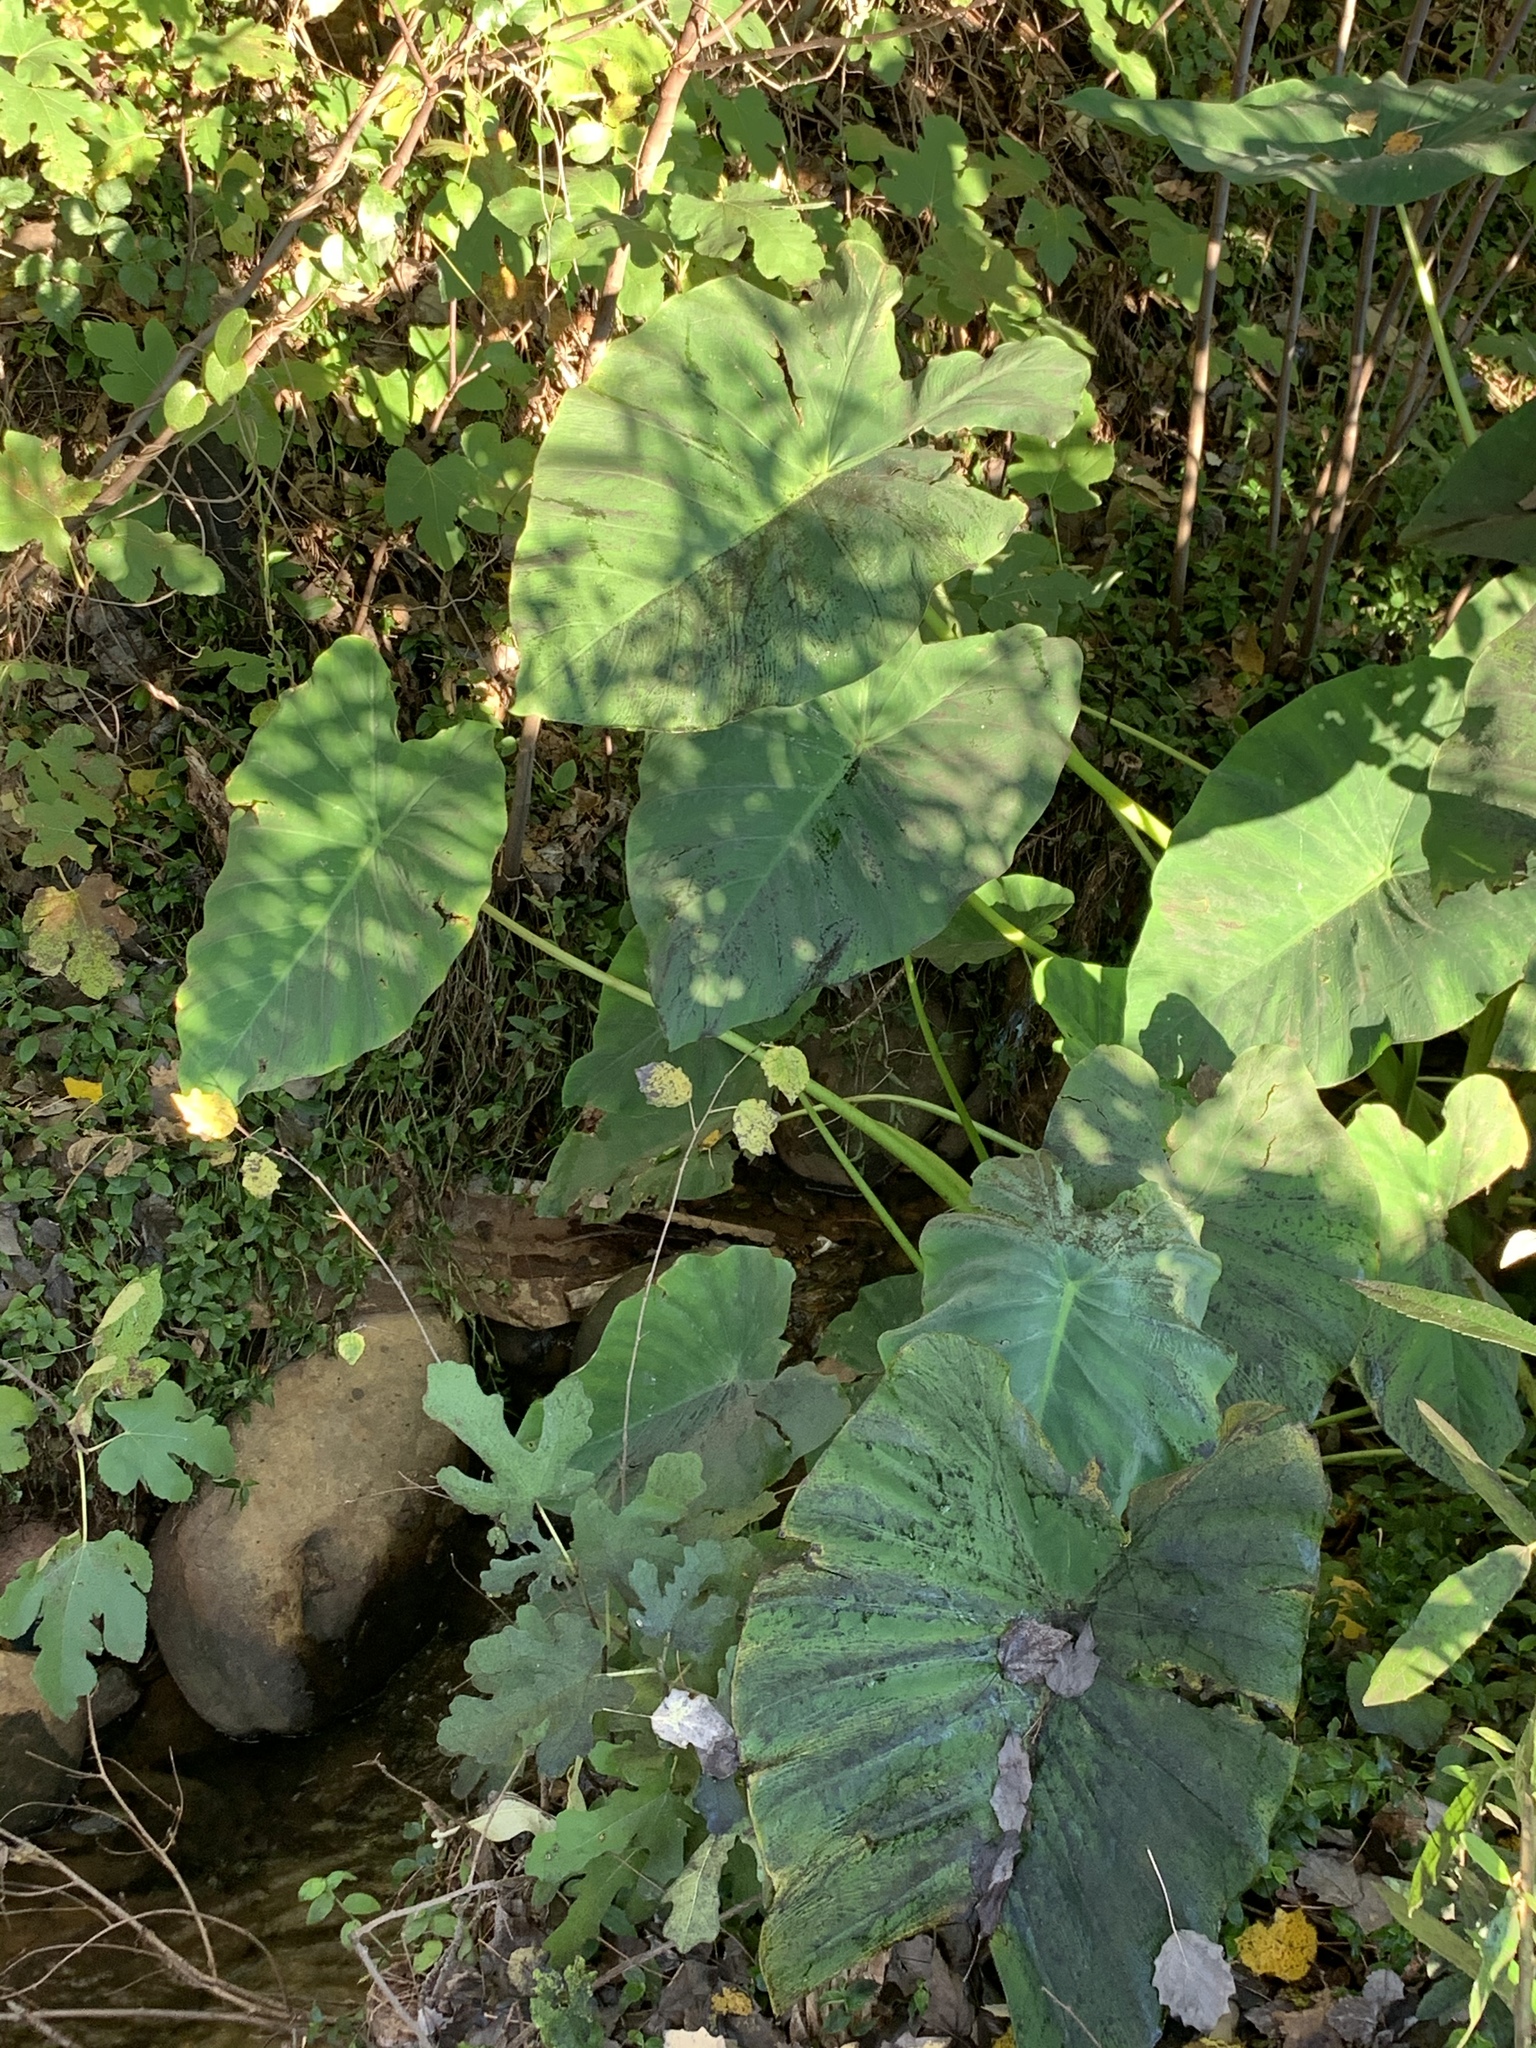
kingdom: Plantae
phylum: Tracheophyta
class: Liliopsida
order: Alismatales
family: Araceae
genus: Colocasia
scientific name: Colocasia esculenta
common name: Taro
